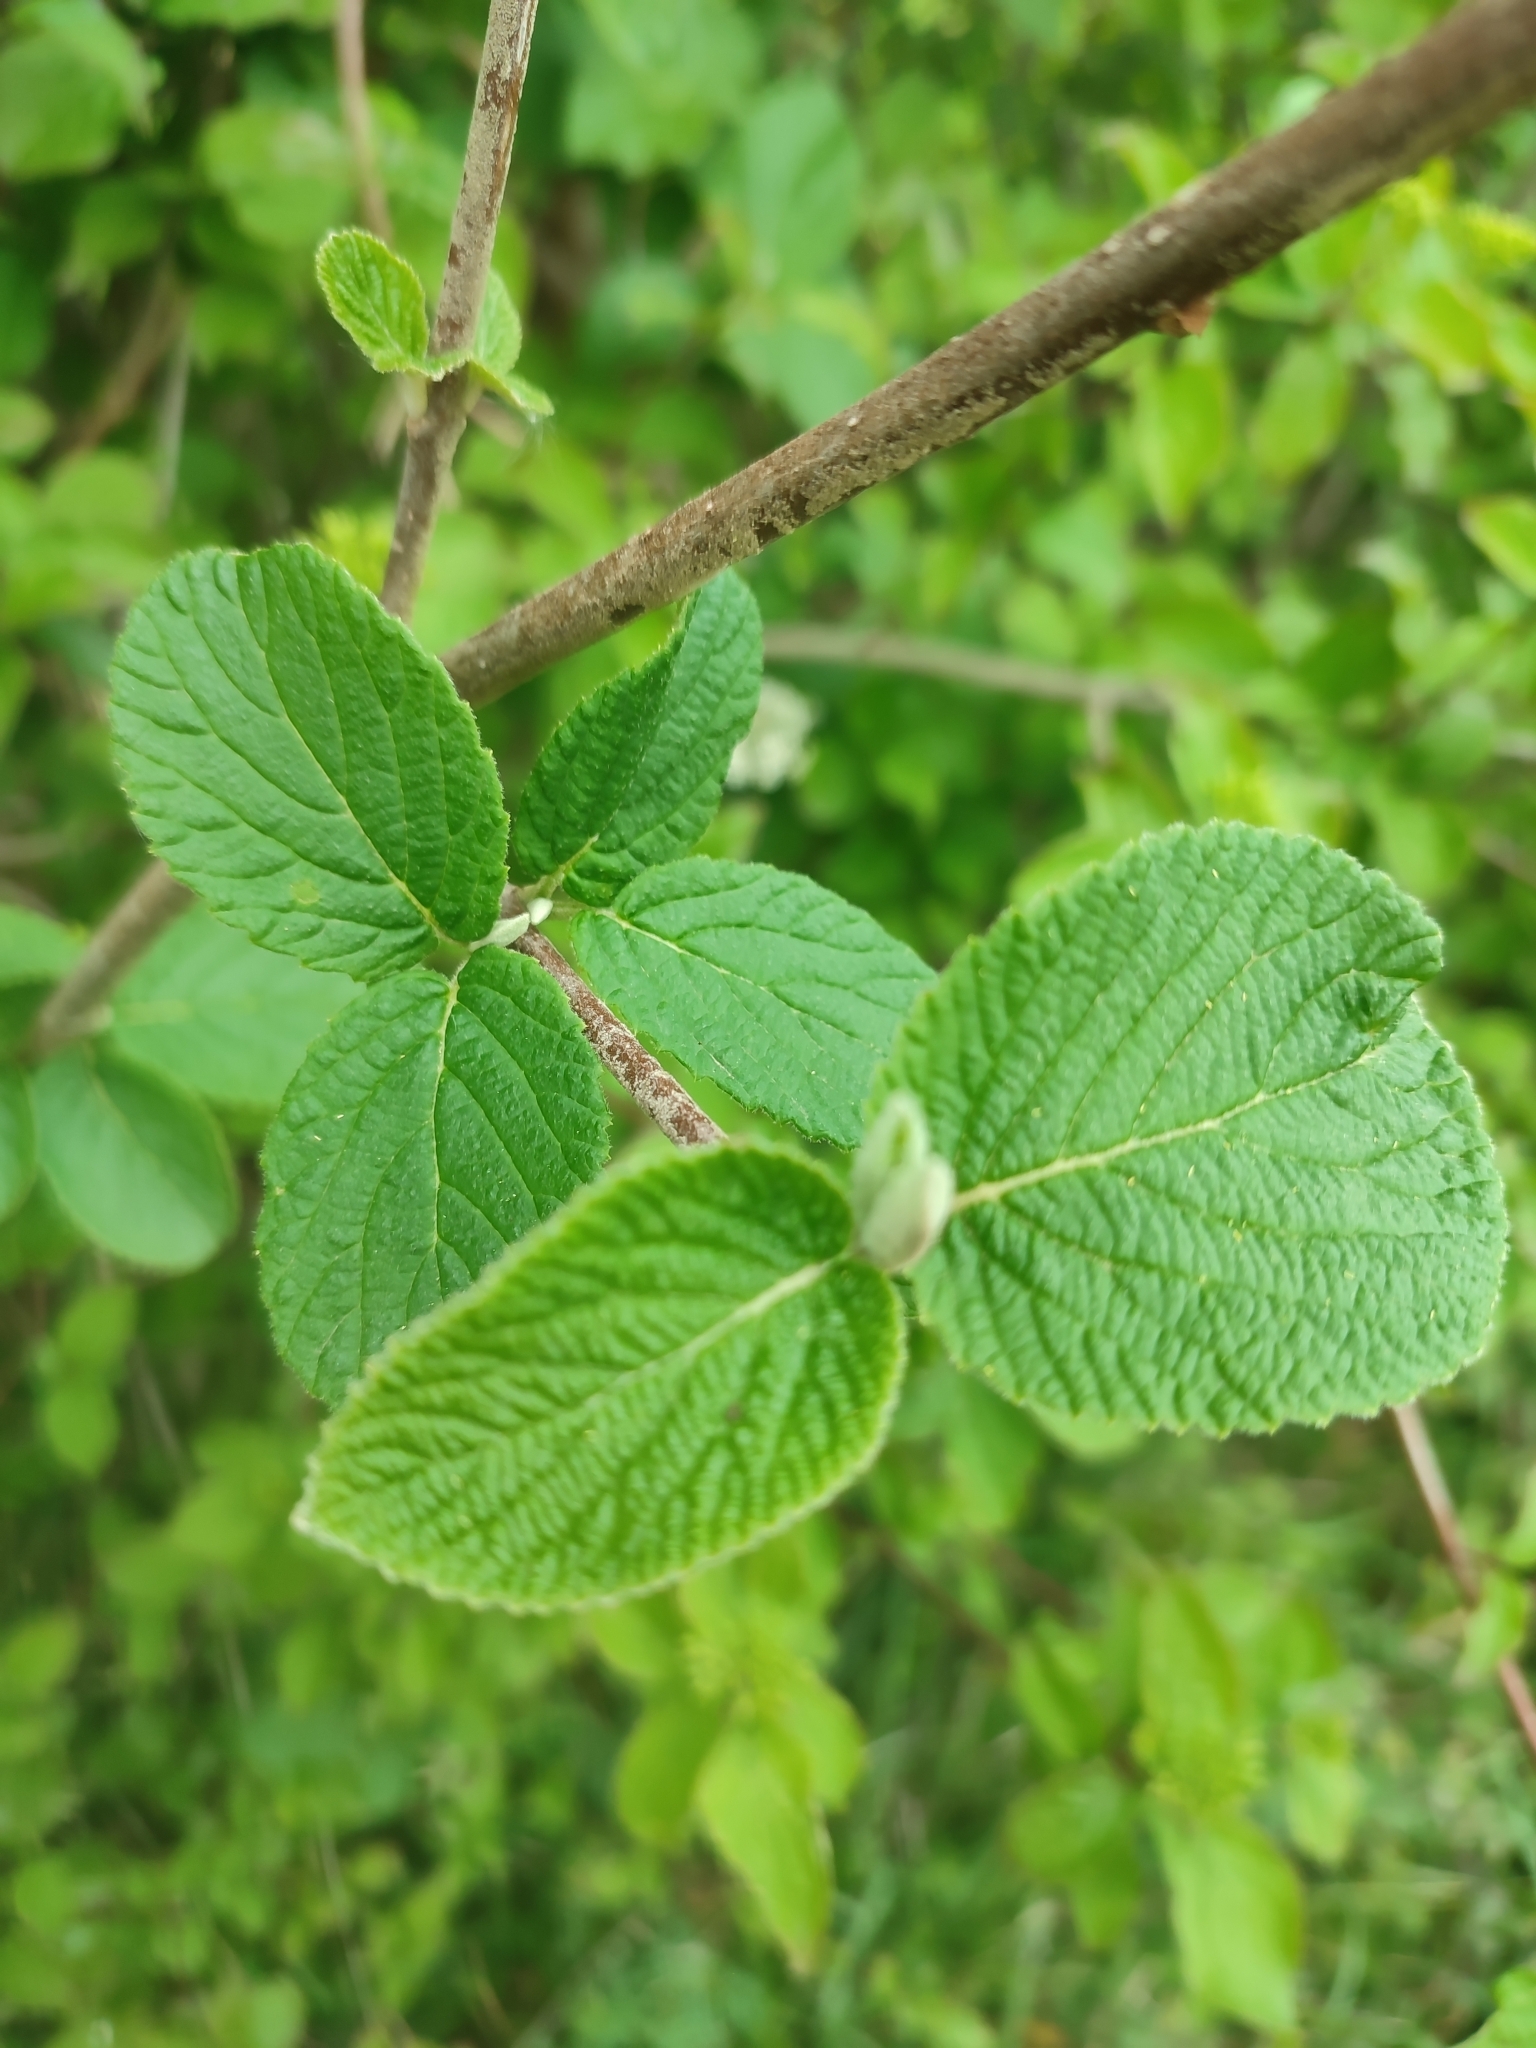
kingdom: Plantae
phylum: Tracheophyta
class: Magnoliopsida
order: Dipsacales
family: Viburnaceae
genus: Viburnum
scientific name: Viburnum lantana
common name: Wayfaring tree
